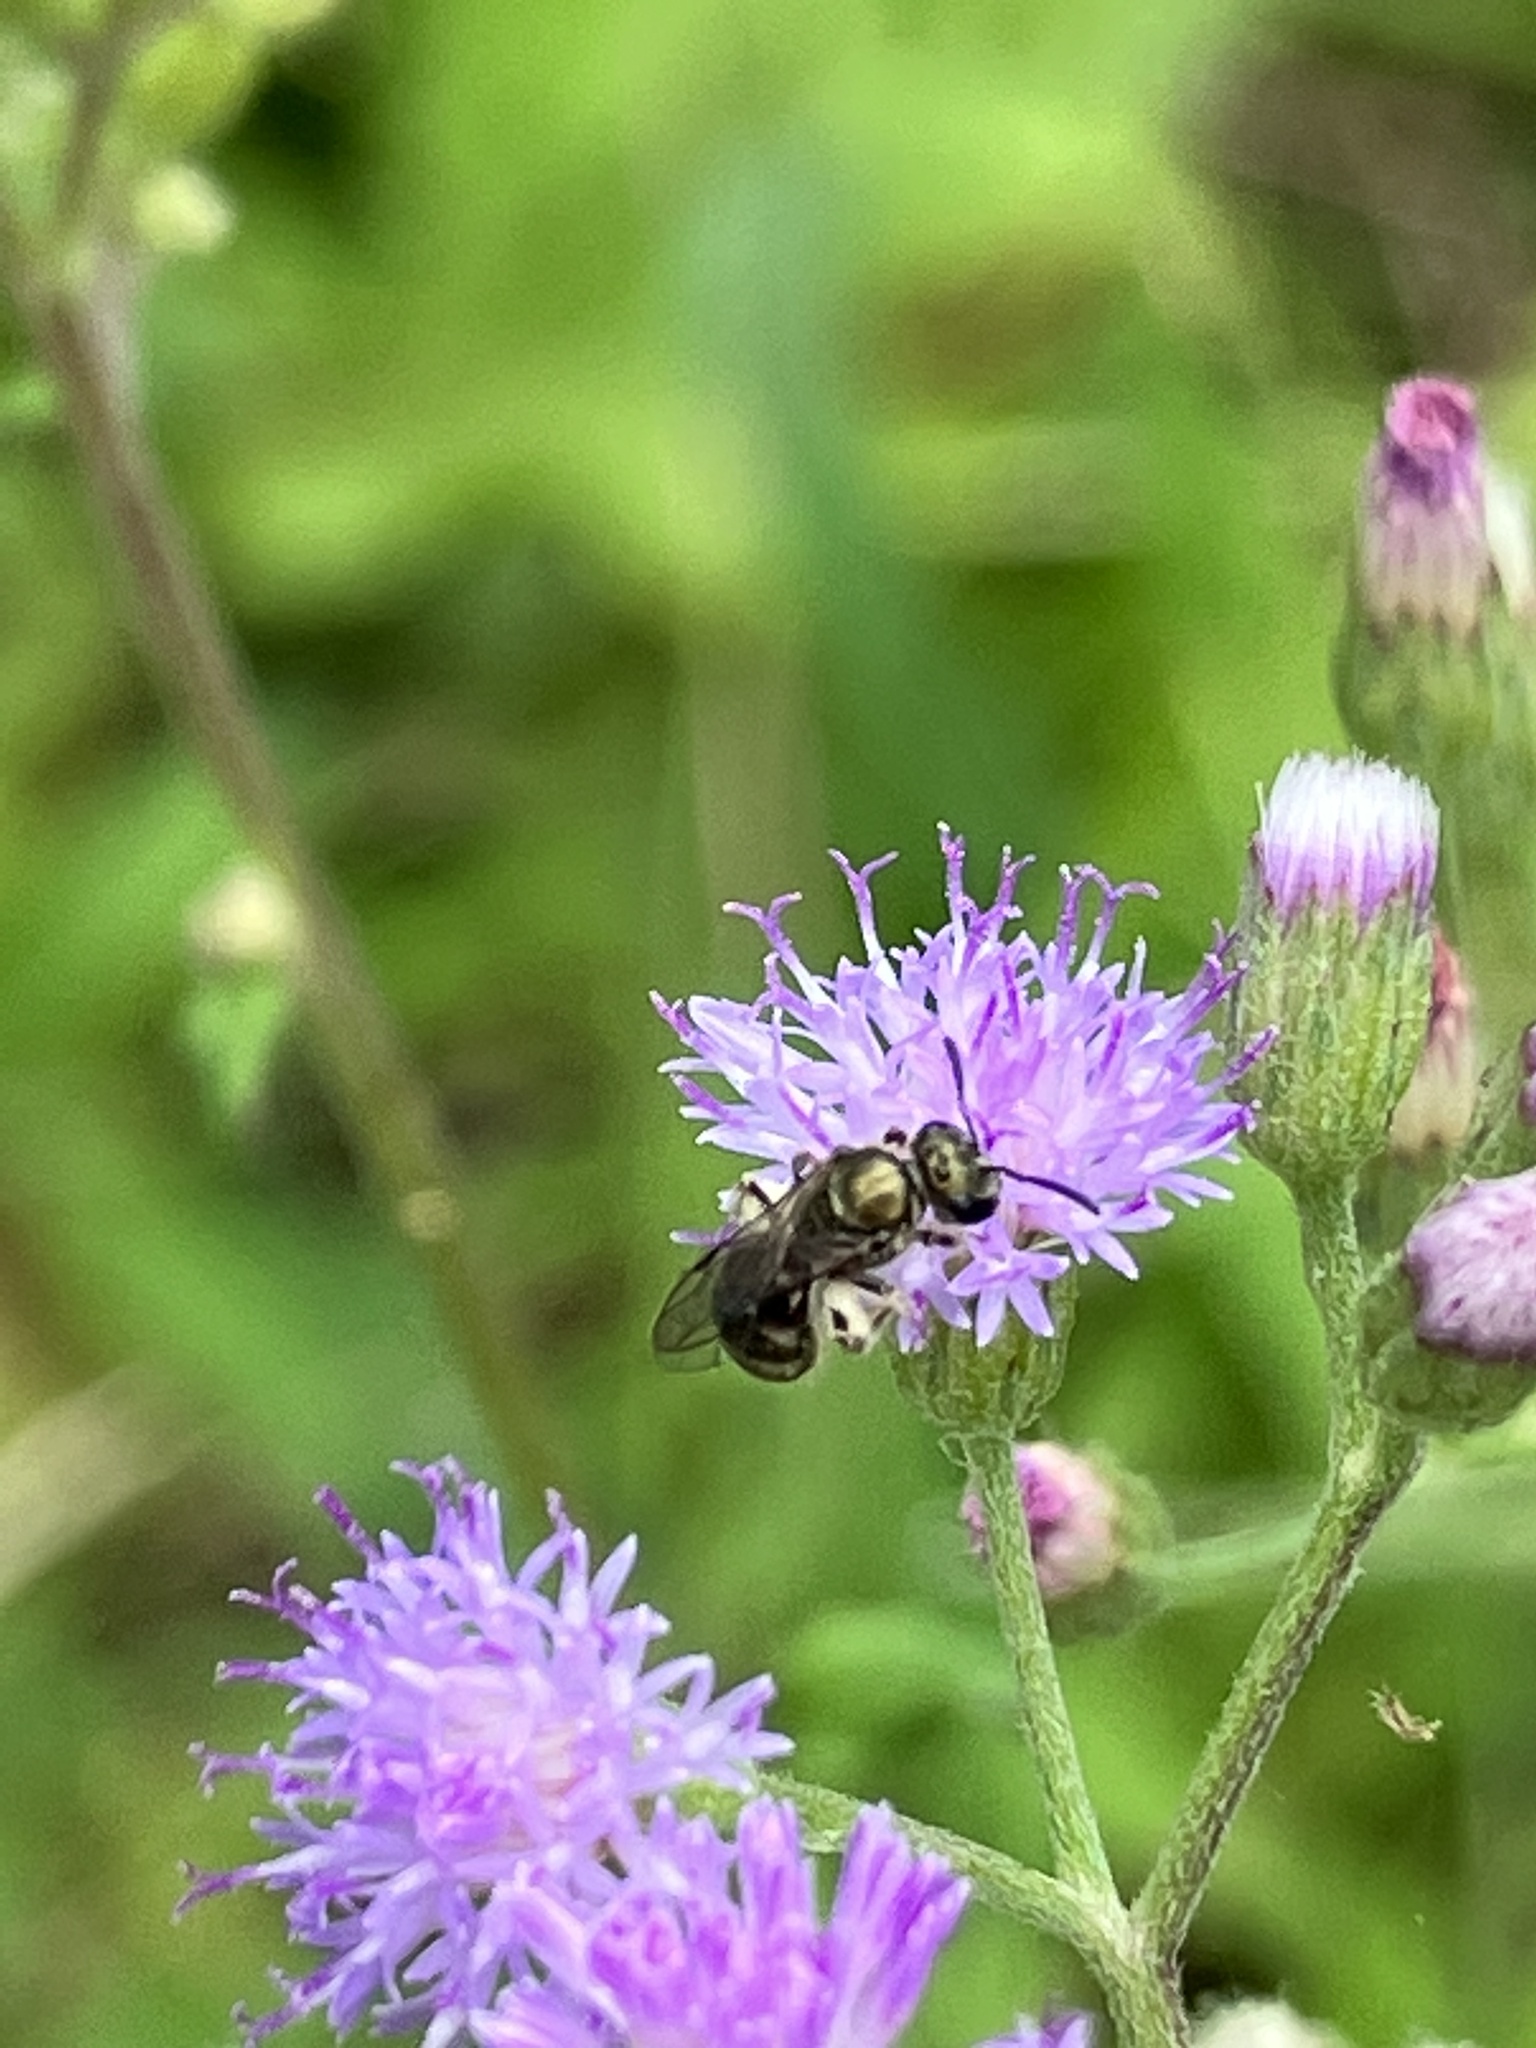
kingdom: Animalia
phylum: Arthropoda
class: Insecta
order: Hymenoptera
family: Halictidae
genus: Dialictus
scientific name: Dialictus
